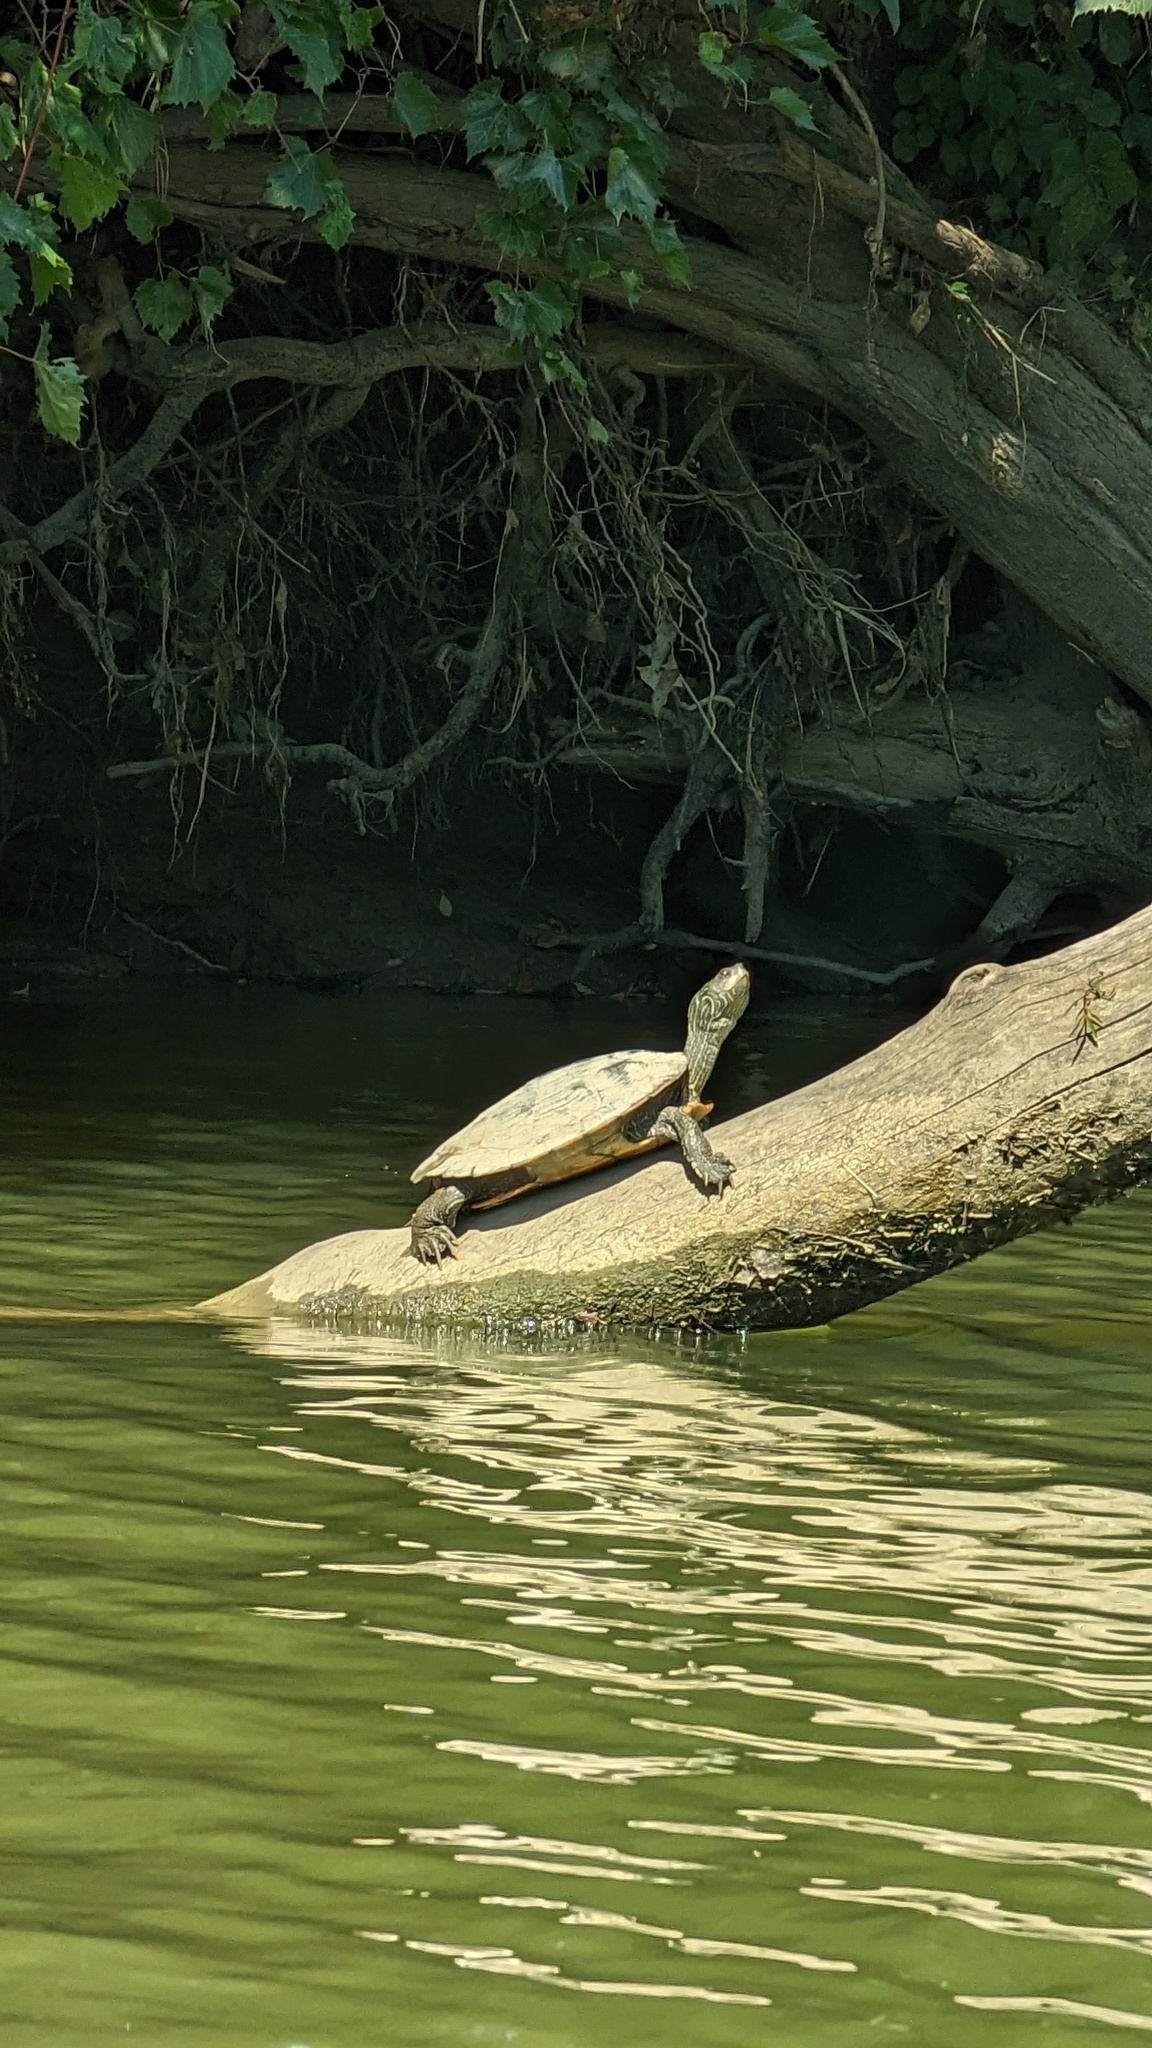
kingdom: Animalia
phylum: Chordata
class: Testudines
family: Emydidae
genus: Graptemys
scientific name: Graptemys geographica
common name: Common map turtle
